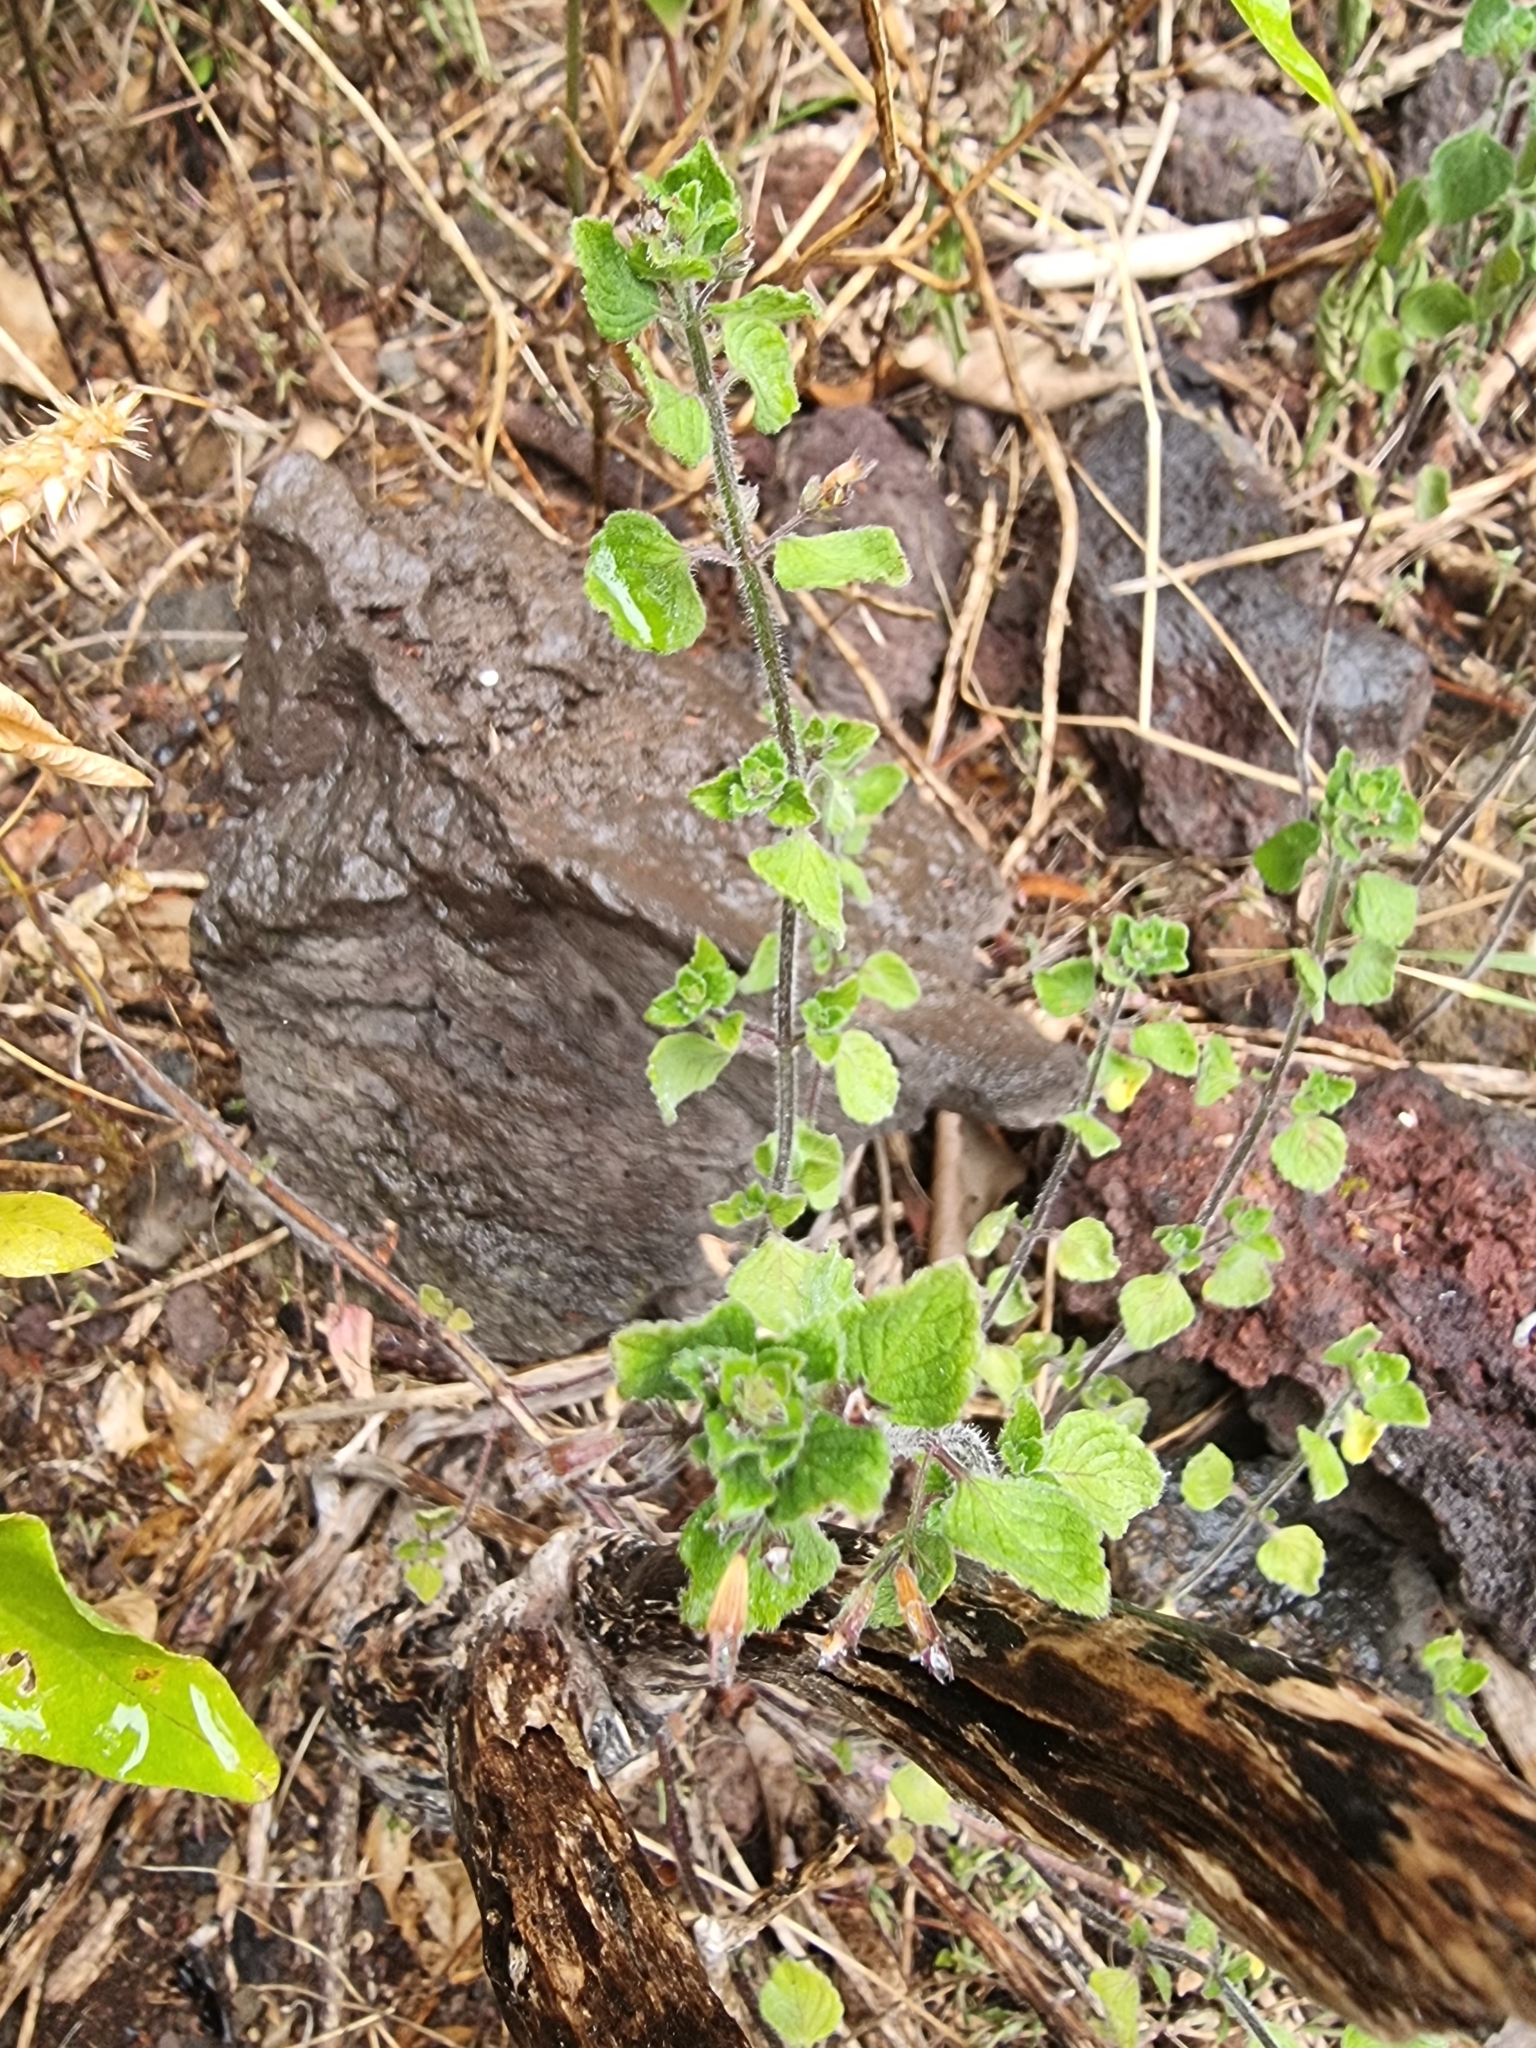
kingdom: Plantae
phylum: Tracheophyta
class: Magnoliopsida
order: Lamiales
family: Lamiaceae
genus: Clinopodium
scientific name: Clinopodium menthifolium
